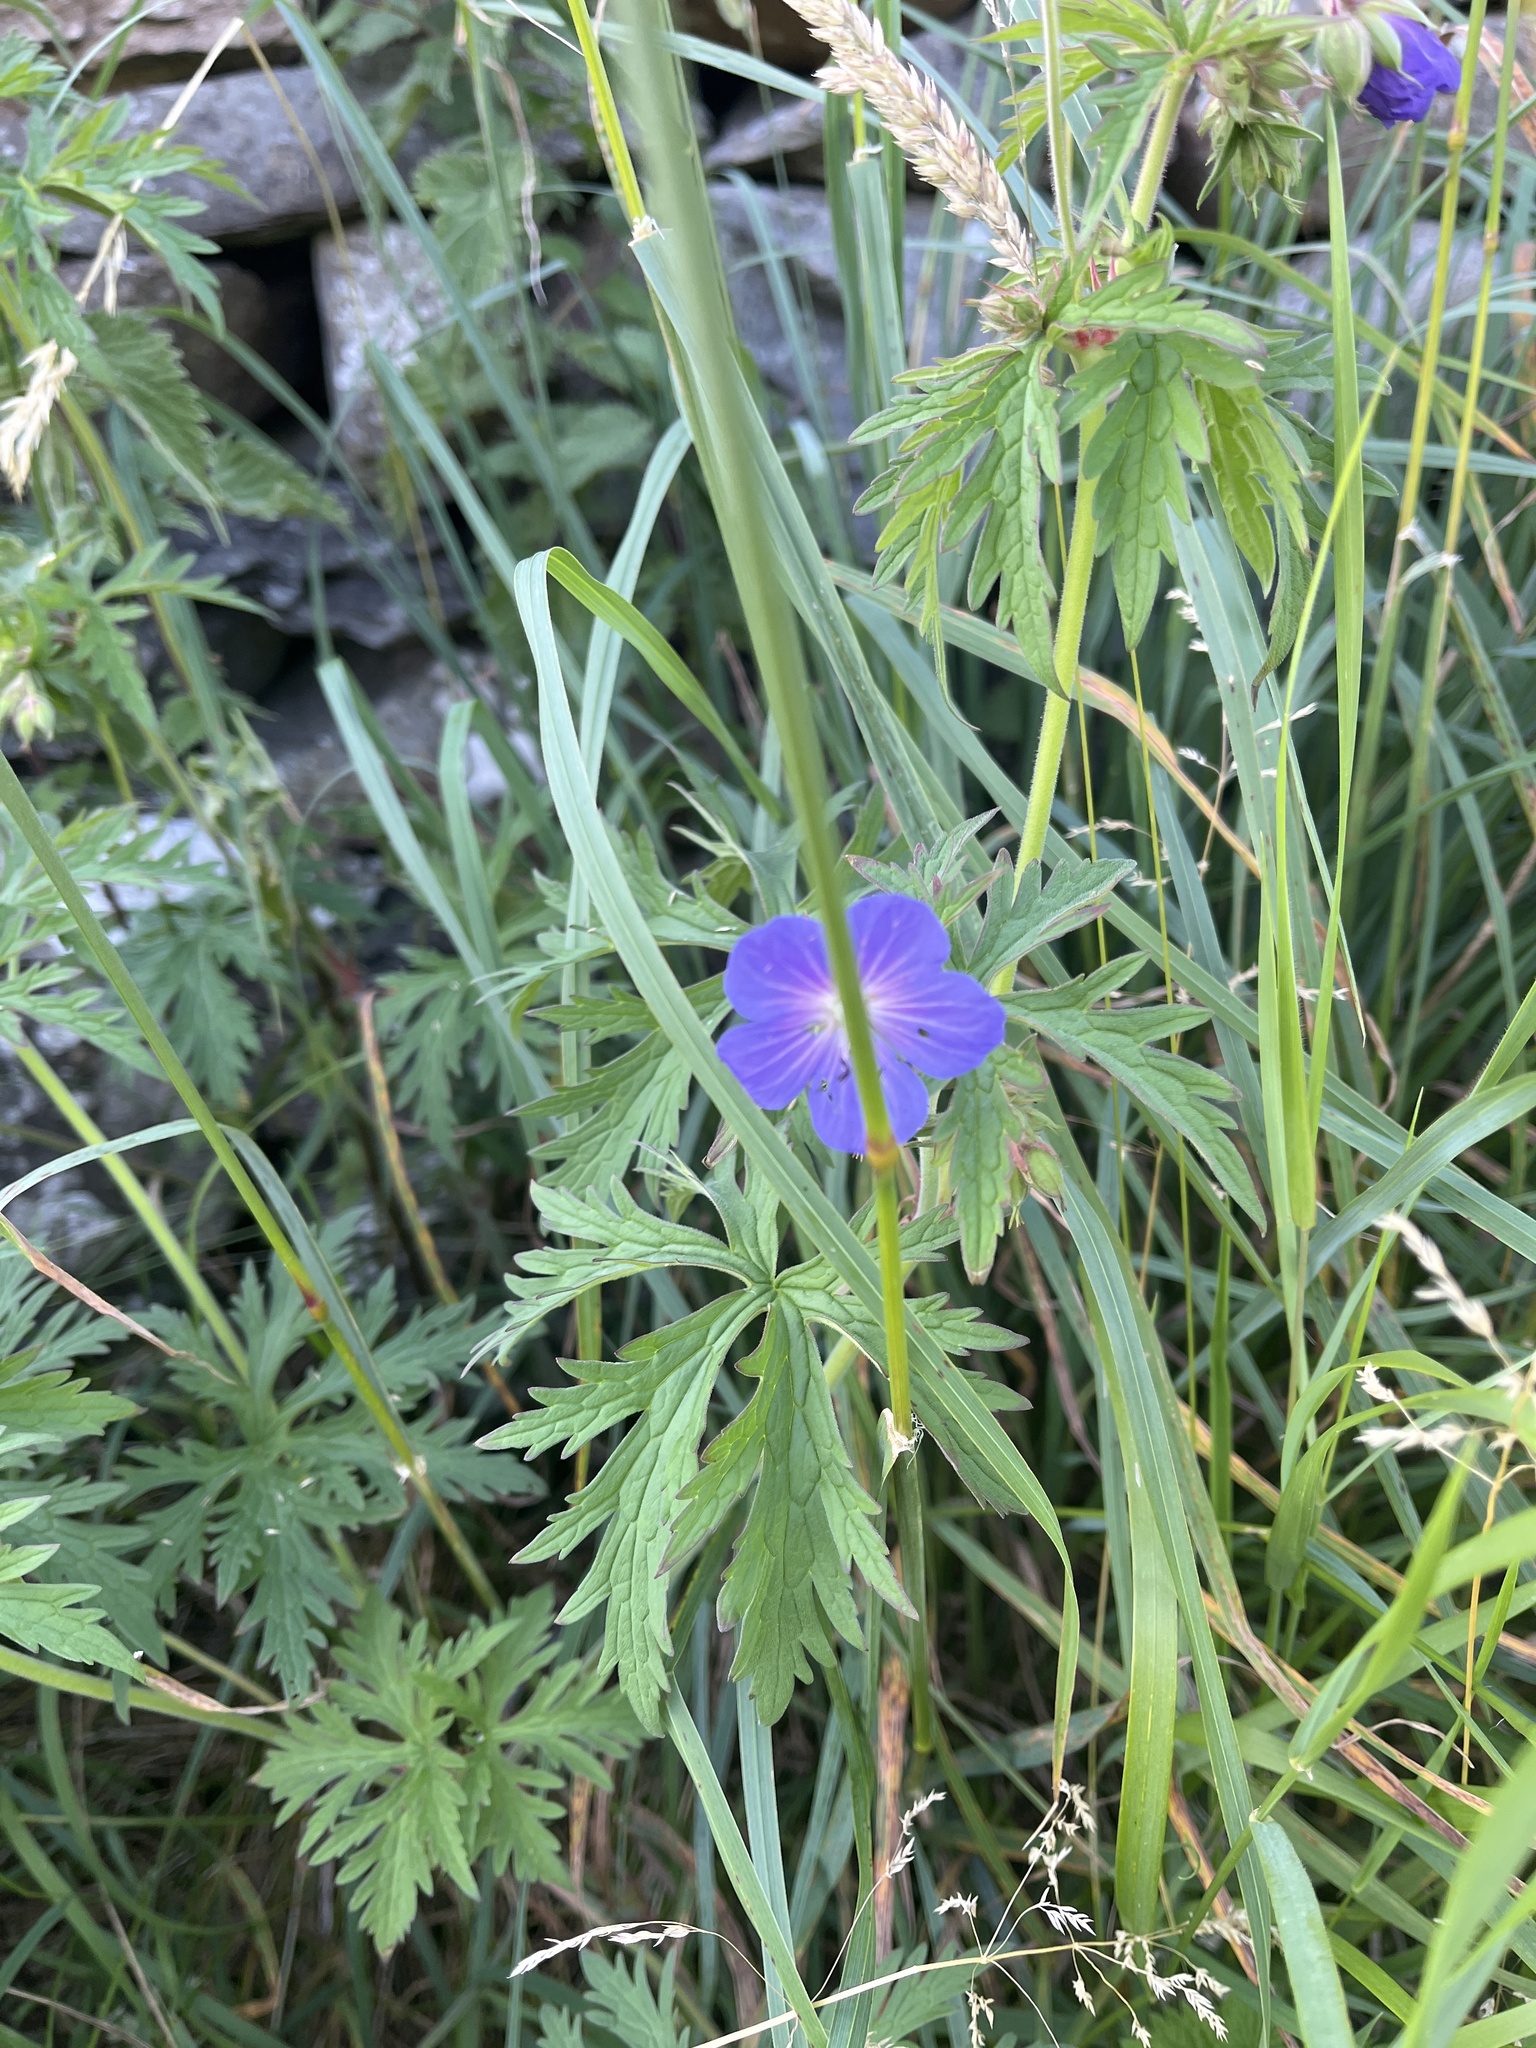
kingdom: Plantae
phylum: Tracheophyta
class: Magnoliopsida
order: Geraniales
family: Geraniaceae
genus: Geranium
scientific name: Geranium pratense
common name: Meadow crane's-bill
